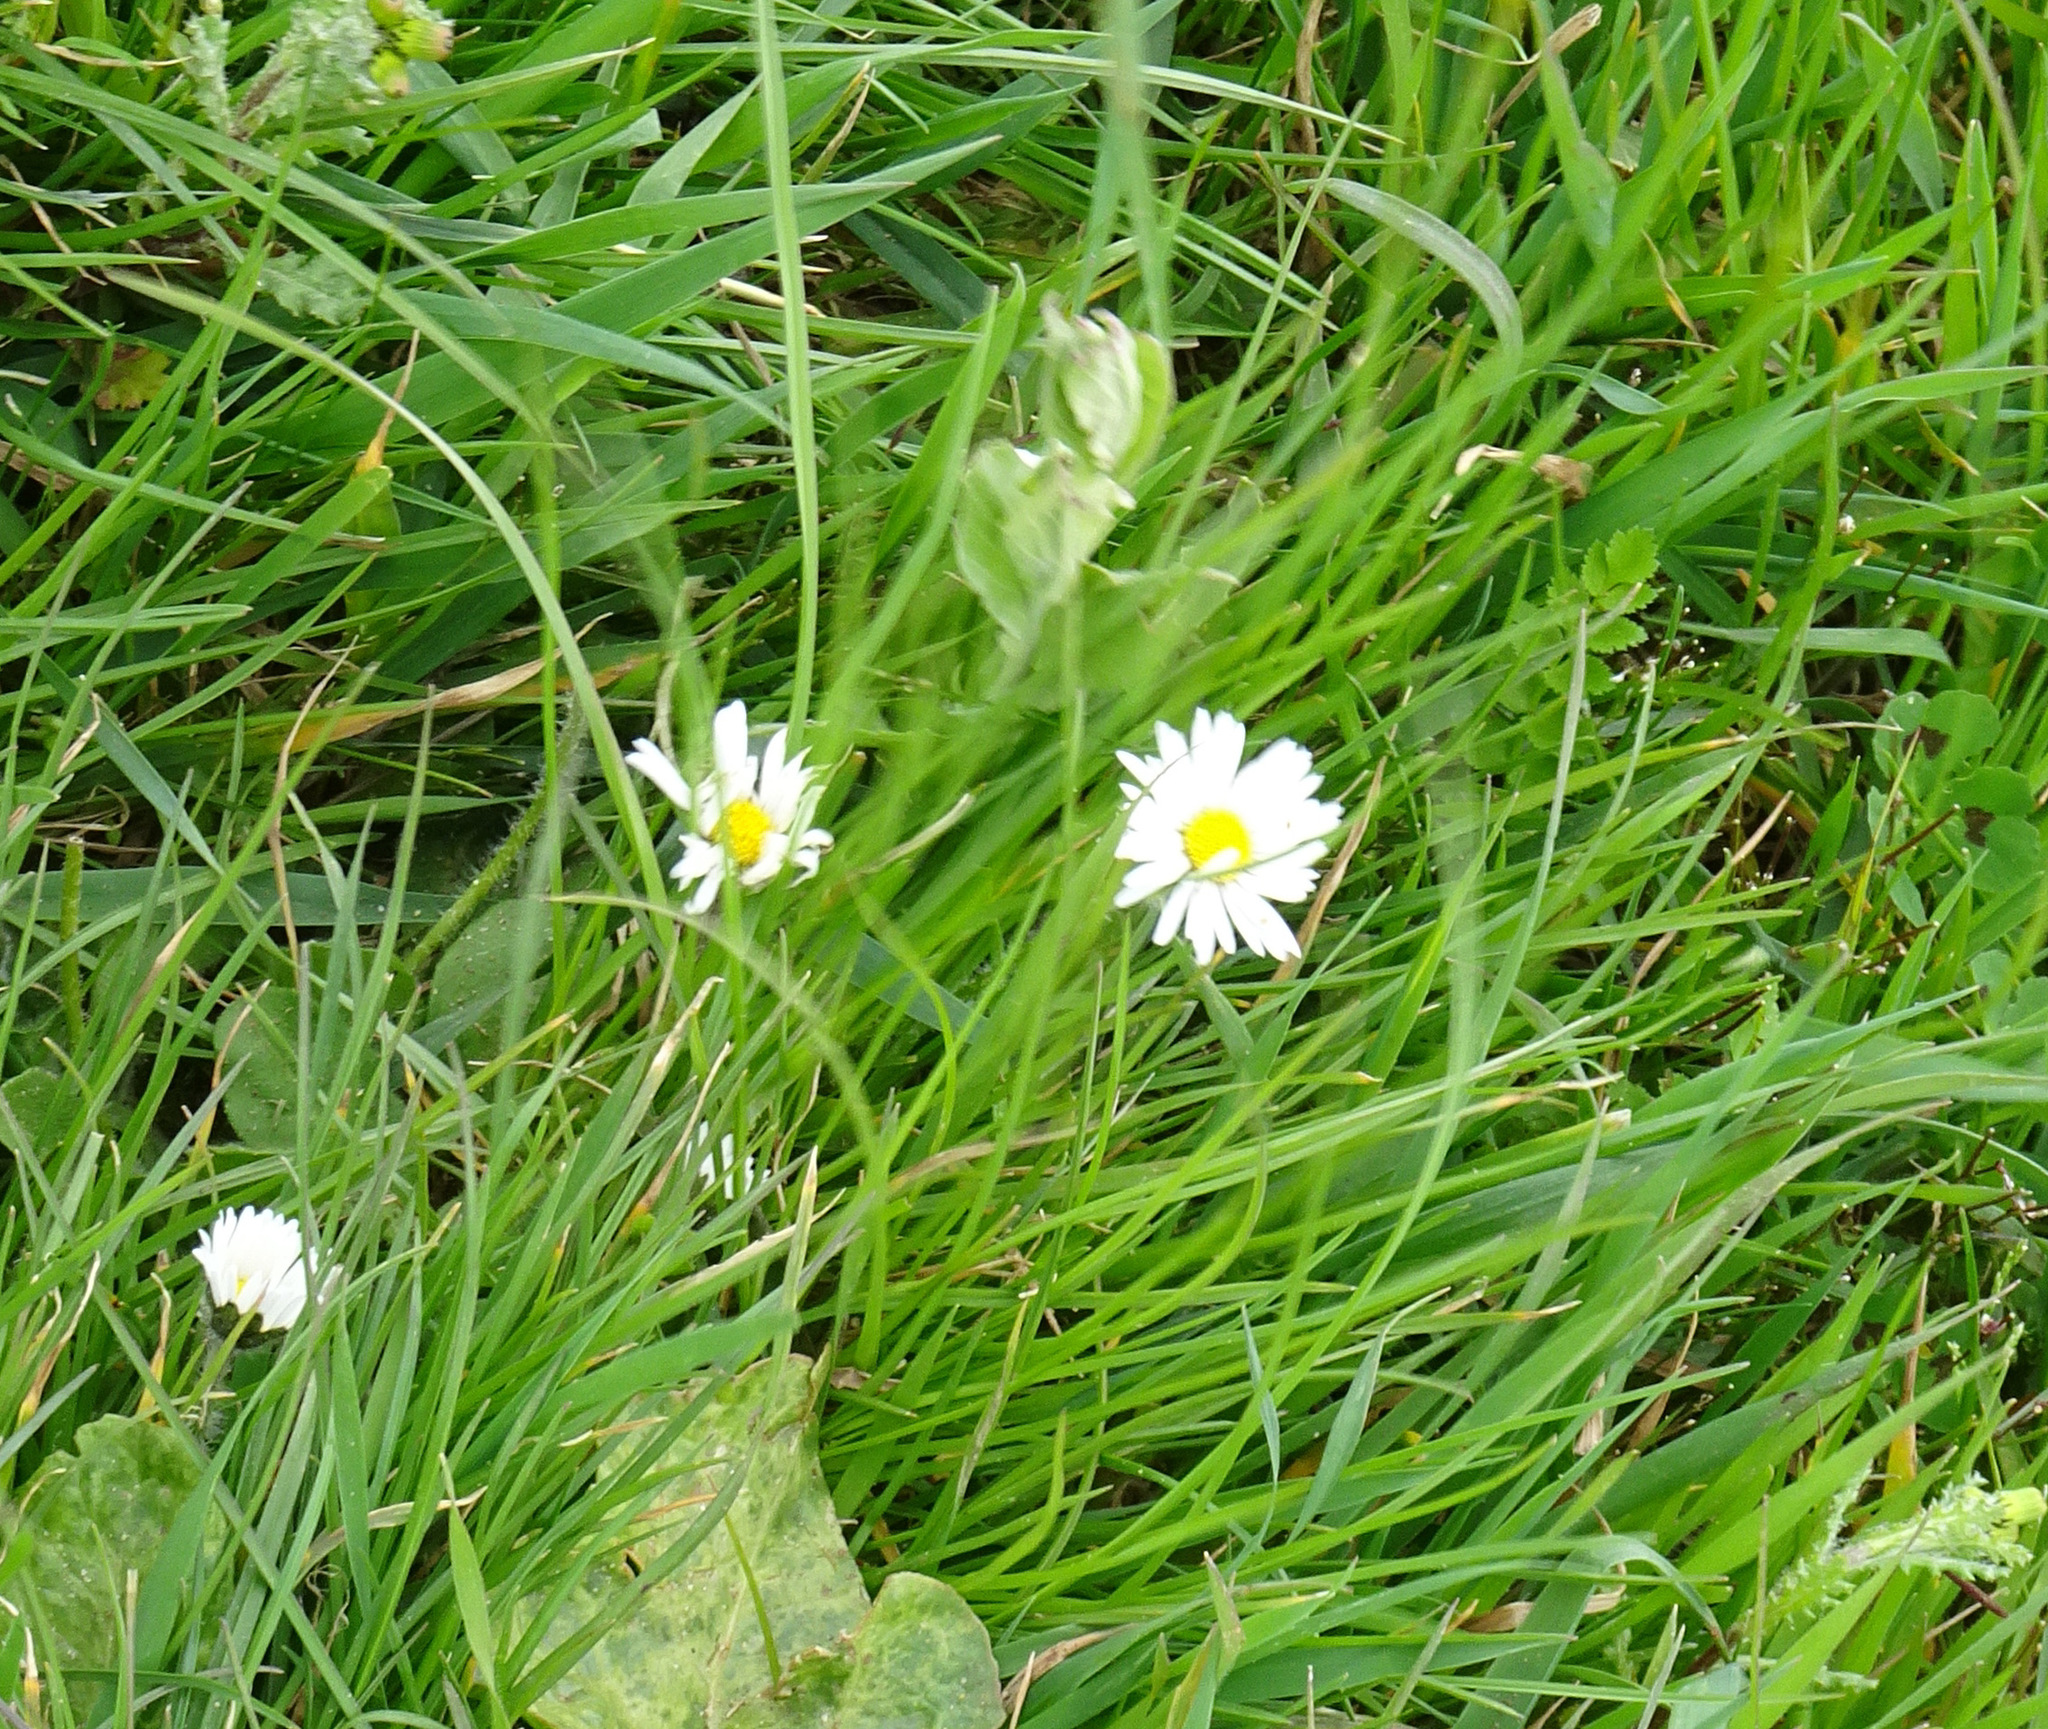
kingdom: Plantae
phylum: Tracheophyta
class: Magnoliopsida
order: Asterales
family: Asteraceae
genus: Bellis
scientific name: Bellis perennis
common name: Lawndaisy
